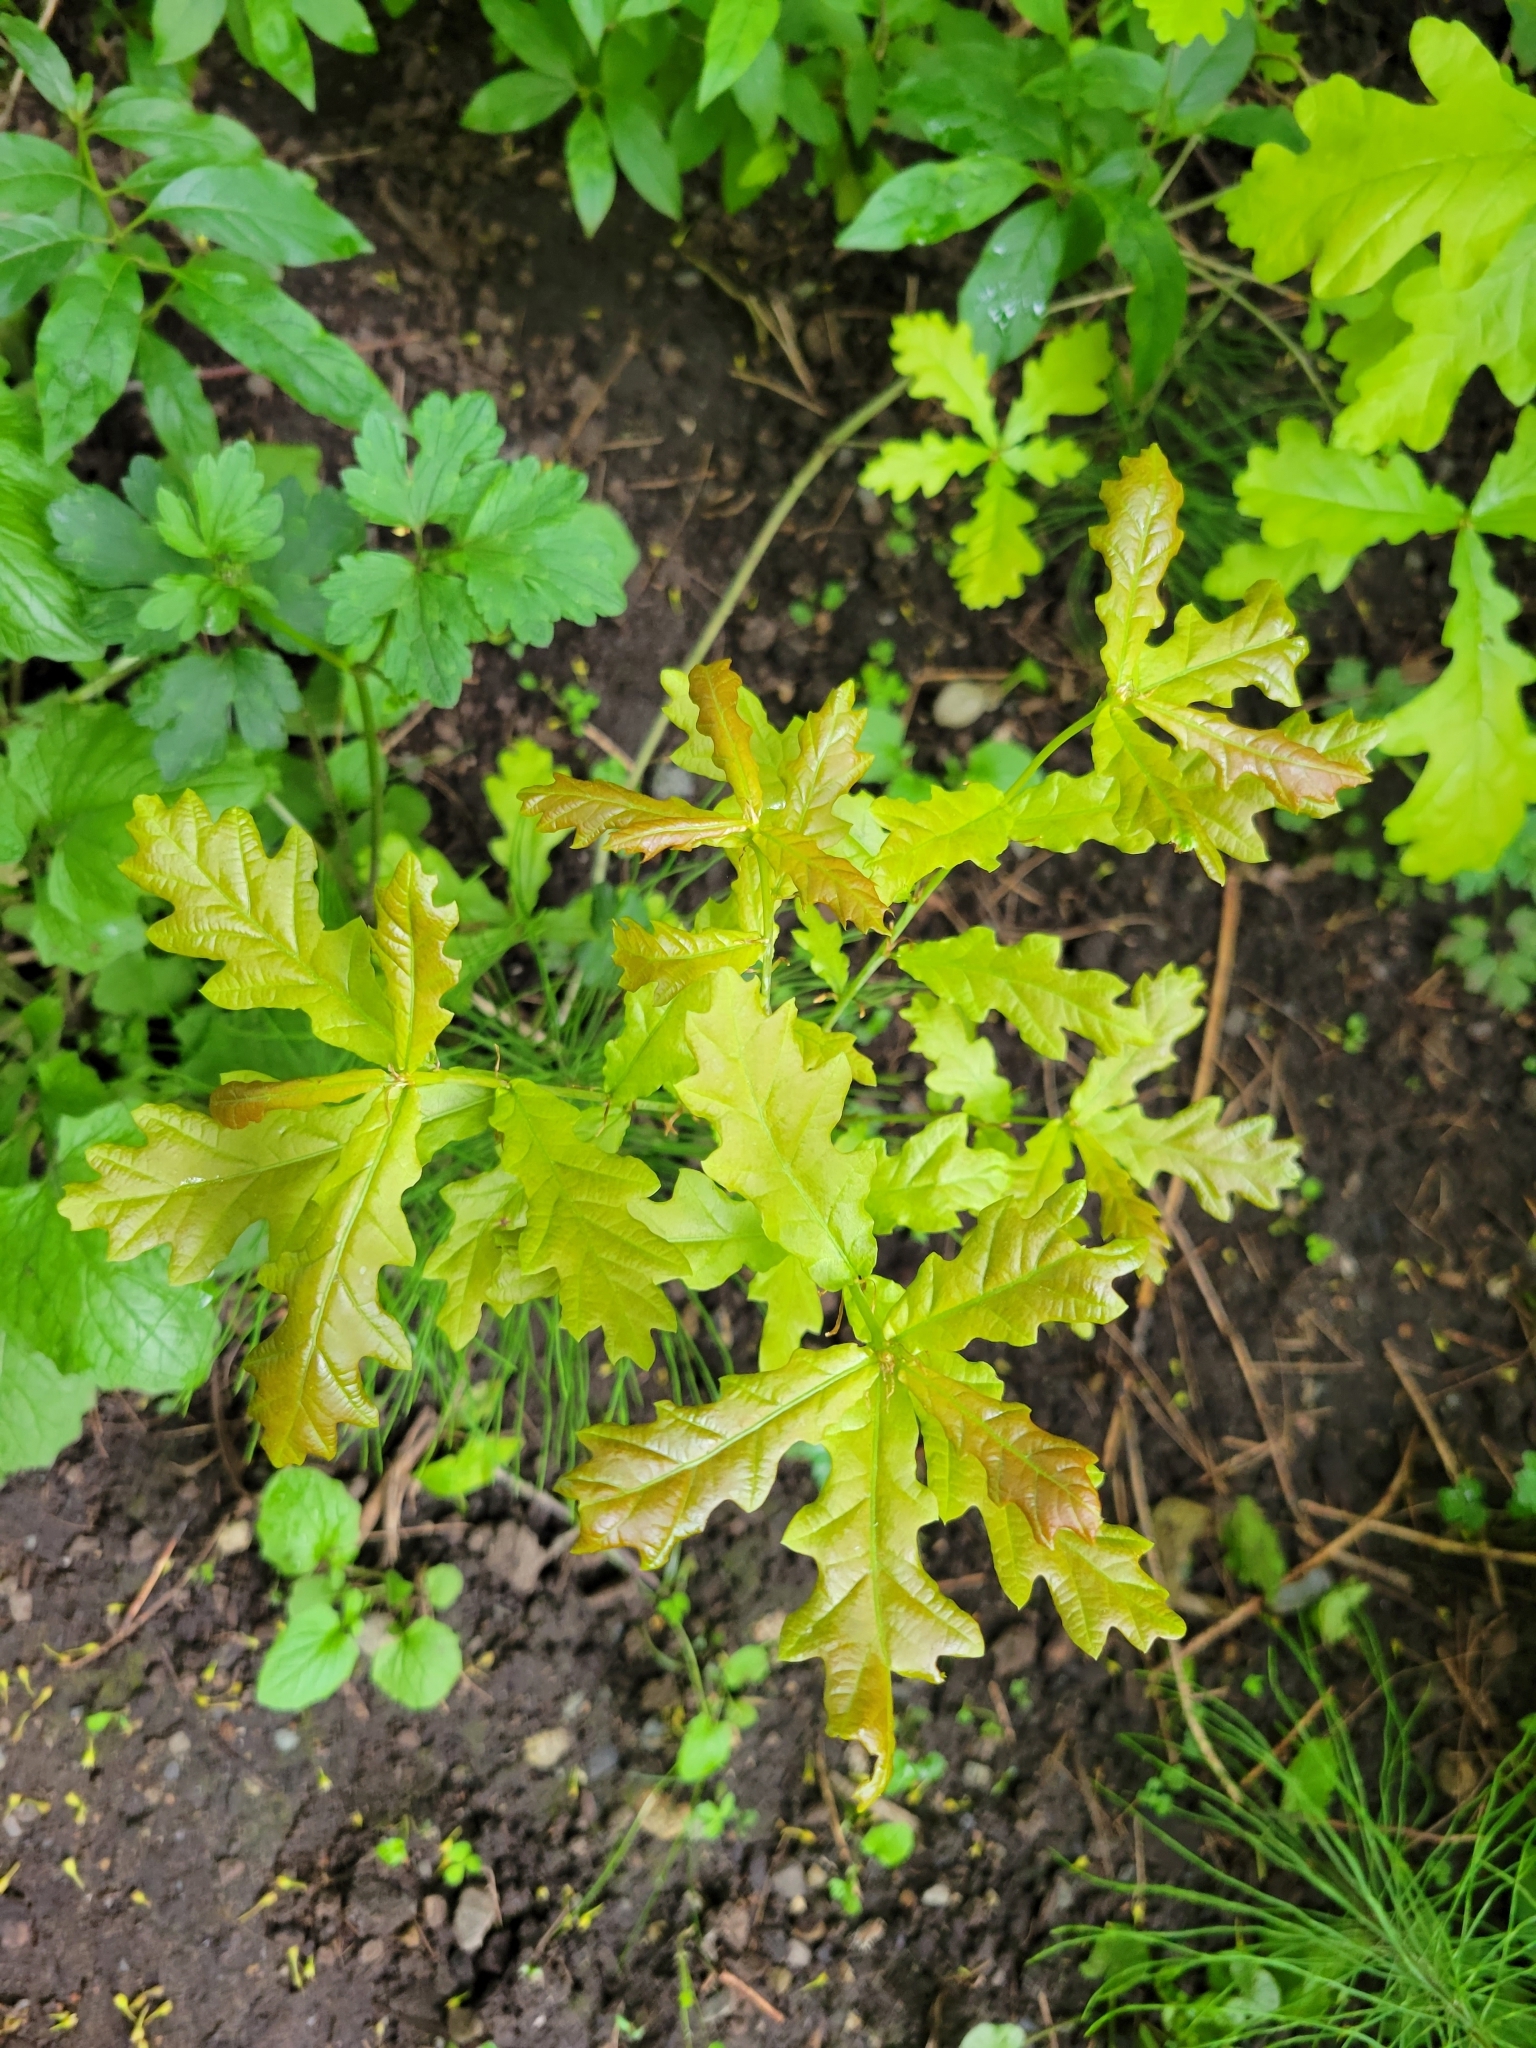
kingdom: Plantae
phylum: Tracheophyta
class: Magnoliopsida
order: Fagales
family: Fagaceae
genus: Quercus
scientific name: Quercus robur
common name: Pedunculate oak
